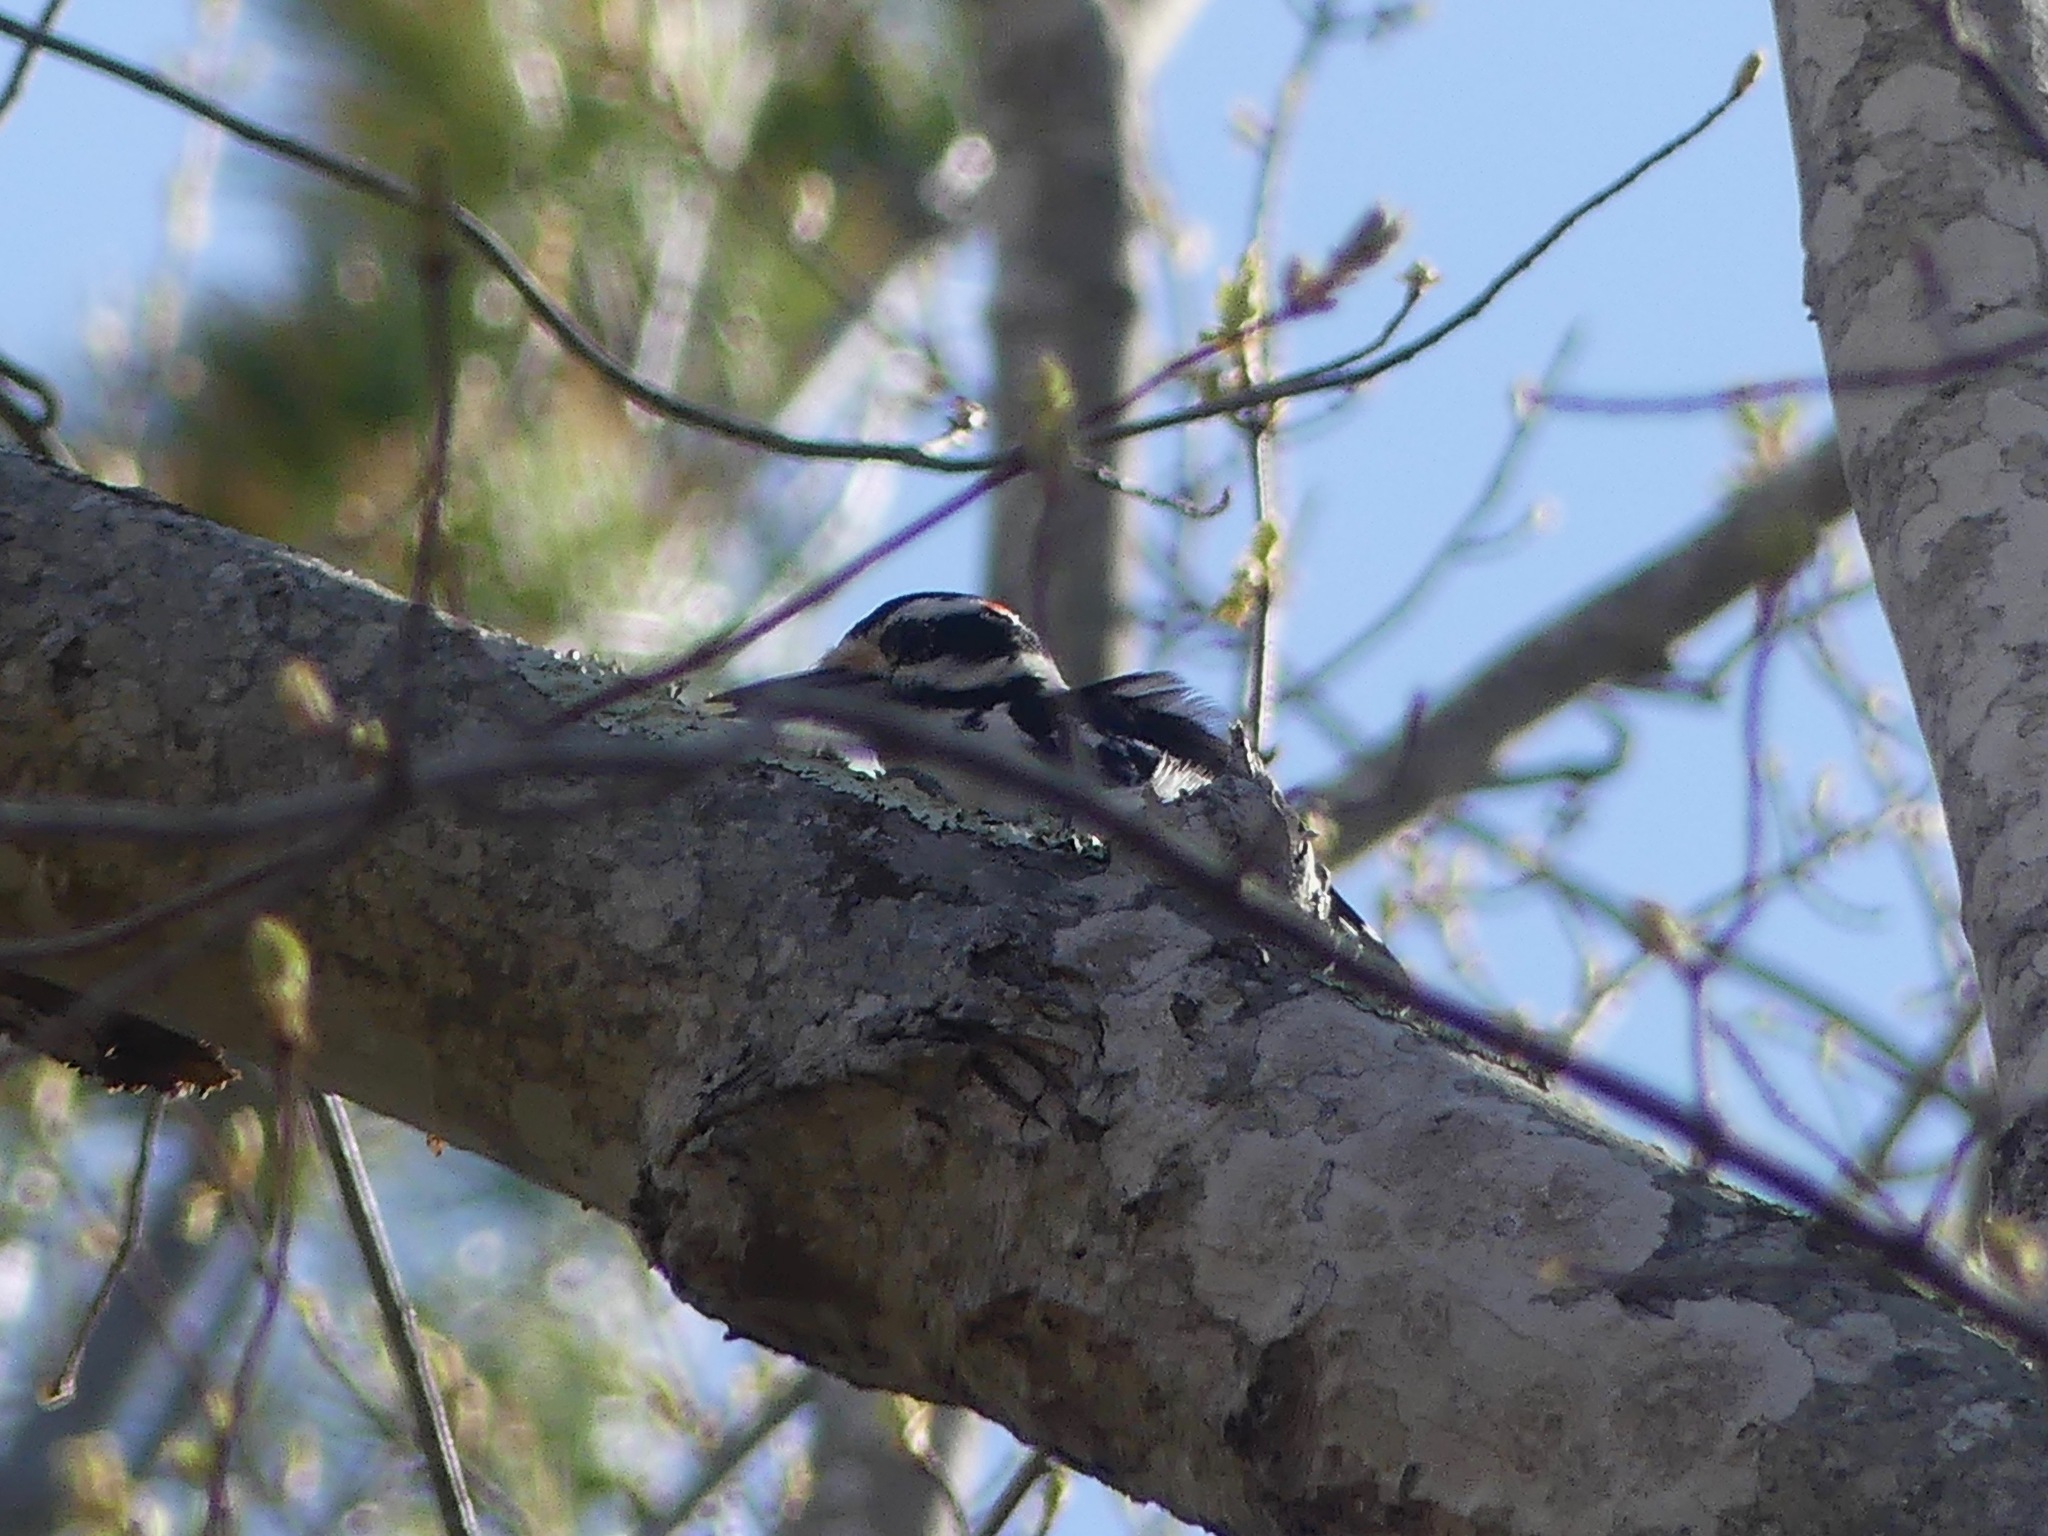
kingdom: Animalia
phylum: Chordata
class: Aves
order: Piciformes
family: Picidae
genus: Leuconotopicus
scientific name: Leuconotopicus villosus
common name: Hairy woodpecker
